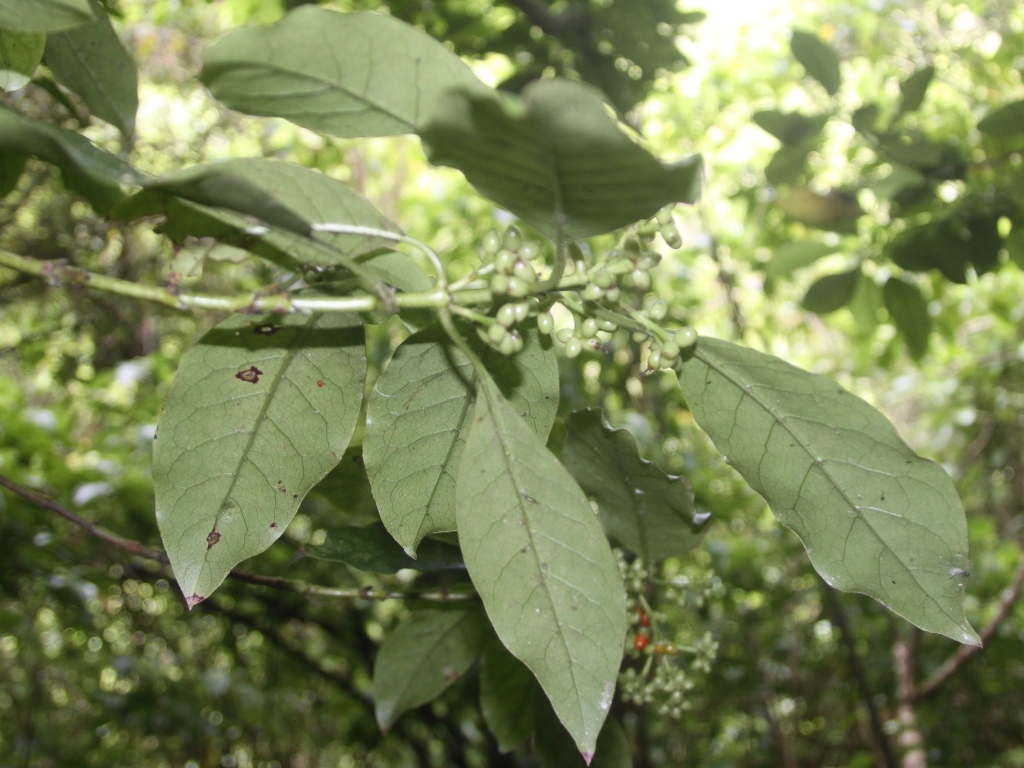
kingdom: Plantae
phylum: Tracheophyta
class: Magnoliopsida
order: Gentianales
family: Rubiaceae
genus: Coprosma
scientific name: Coprosma autumnalis
